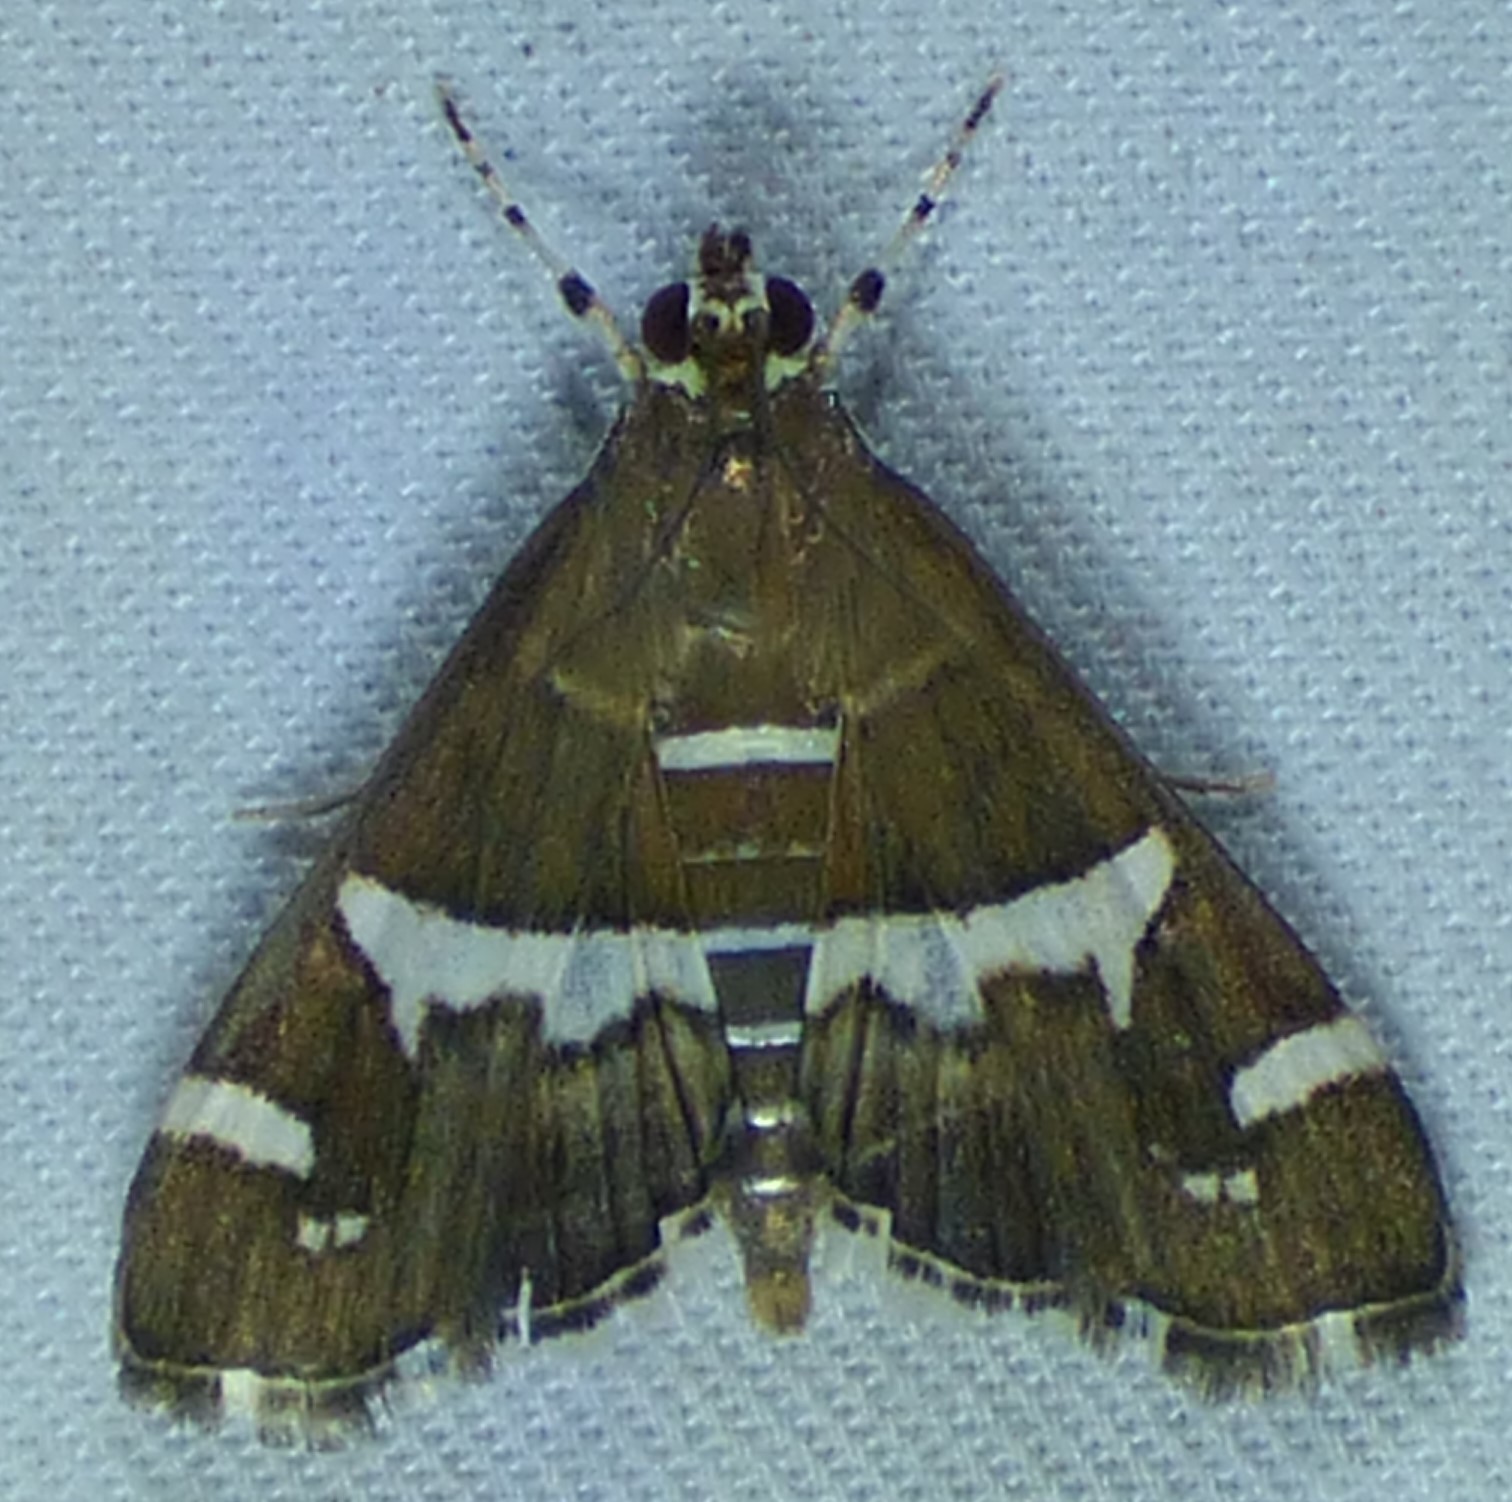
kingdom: Animalia
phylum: Arthropoda
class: Insecta
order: Lepidoptera
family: Crambidae
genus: Spoladea
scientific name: Spoladea recurvalis
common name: Beet webworm moth
